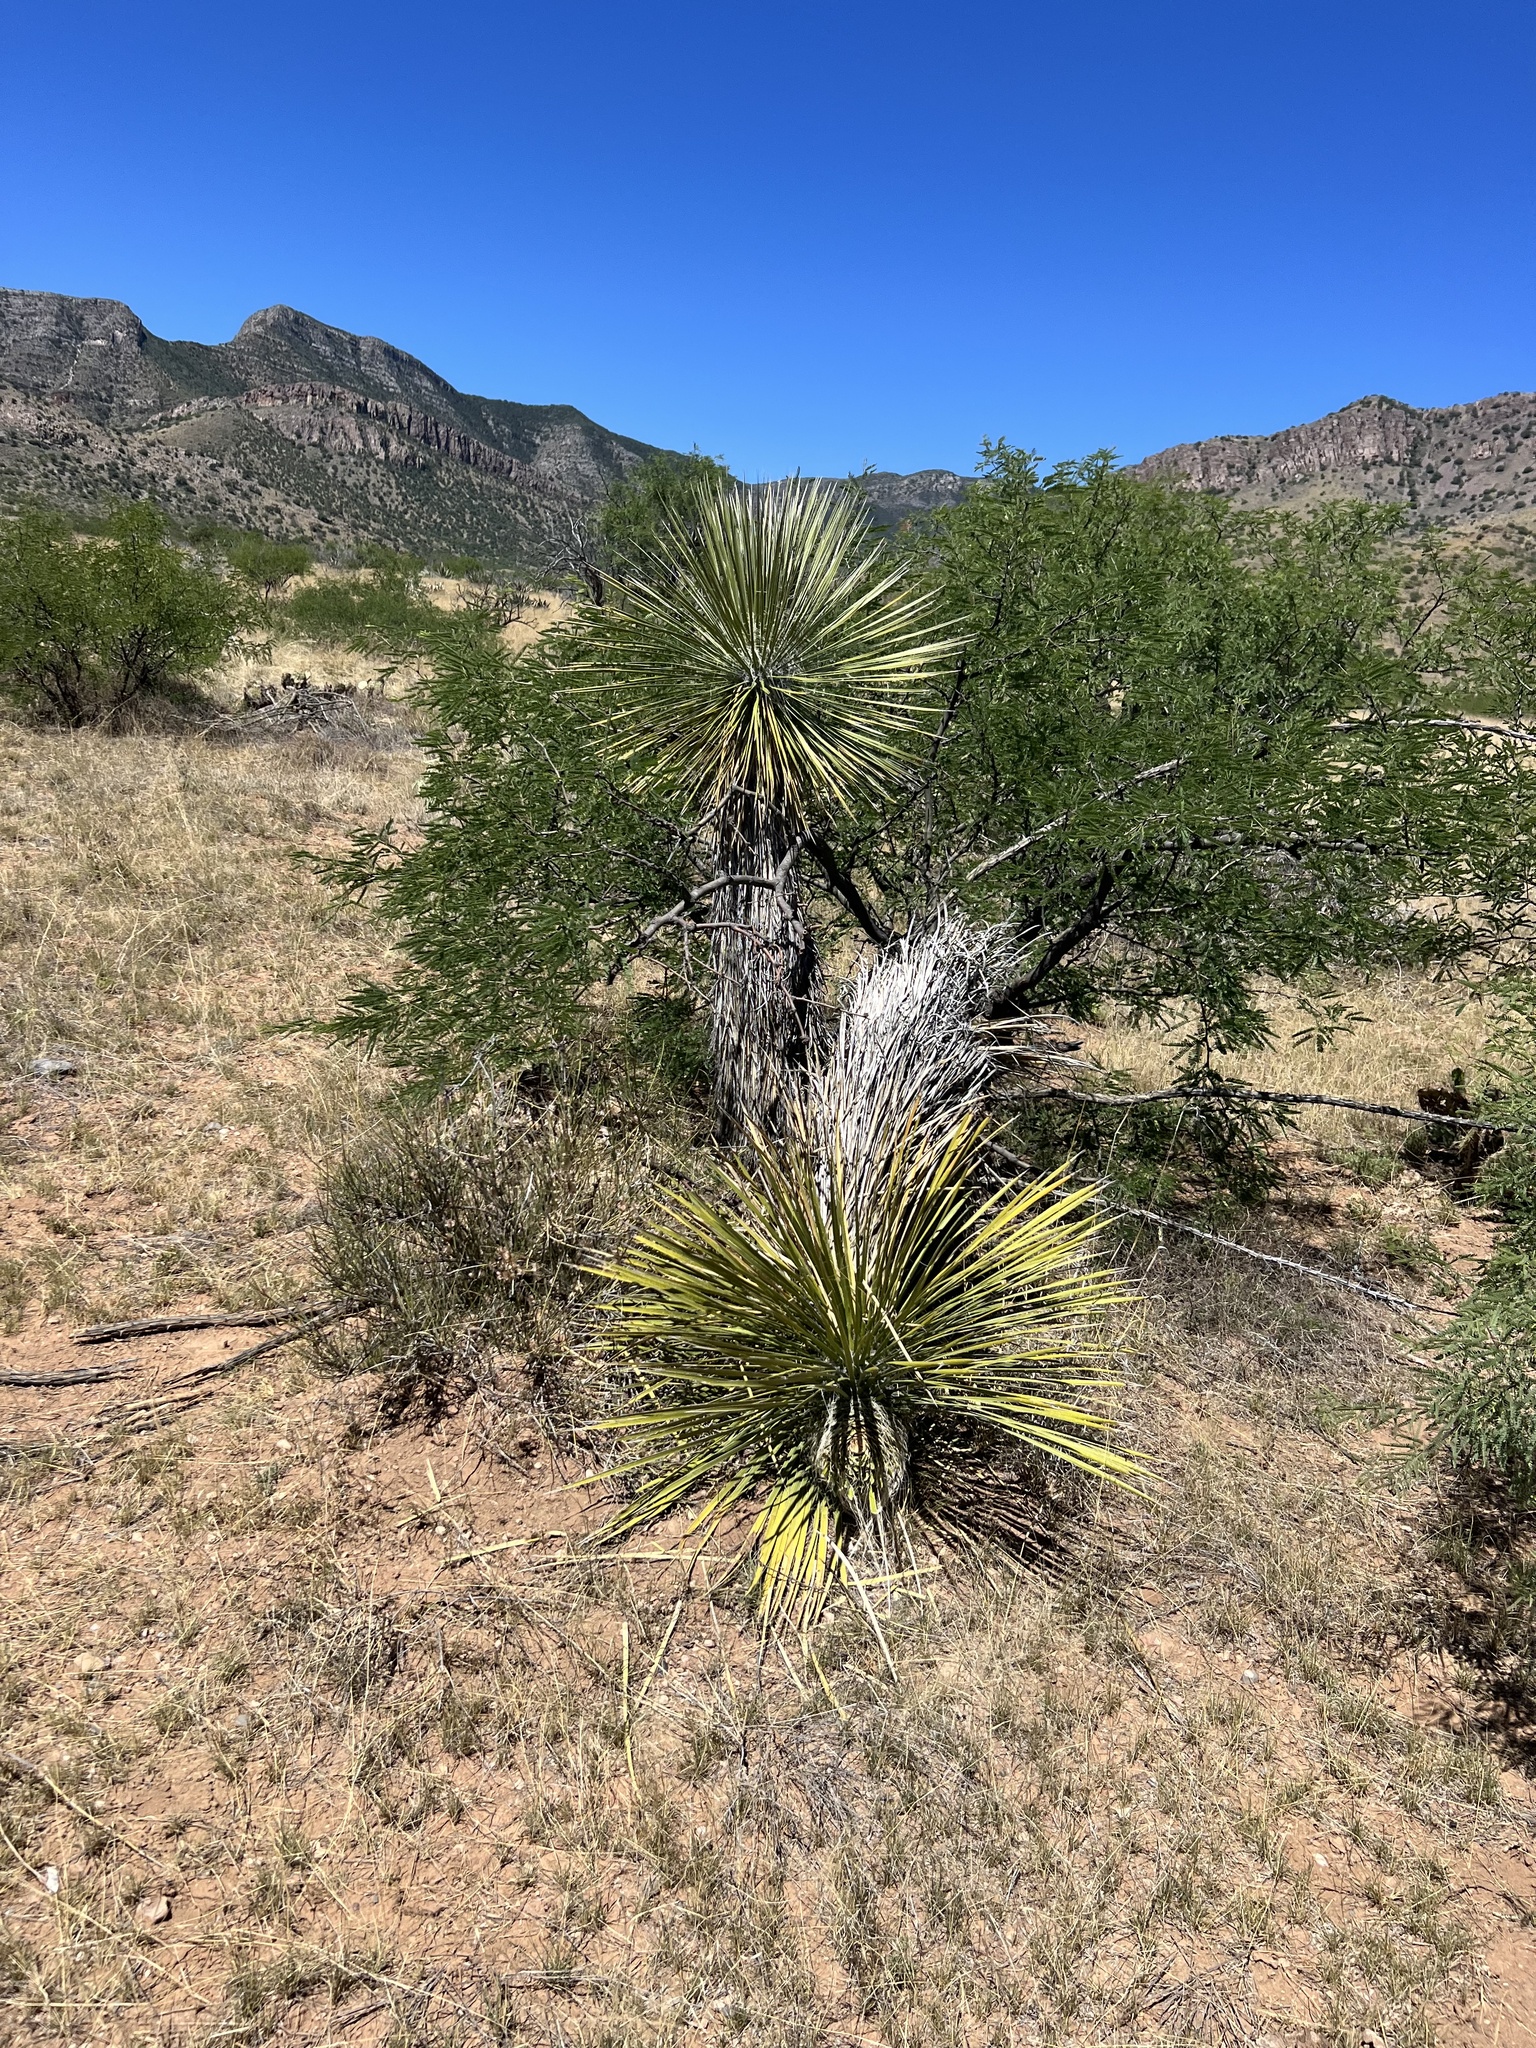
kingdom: Plantae
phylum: Tracheophyta
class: Liliopsida
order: Asparagales
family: Asparagaceae
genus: Yucca
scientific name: Yucca elata
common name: Palmella
